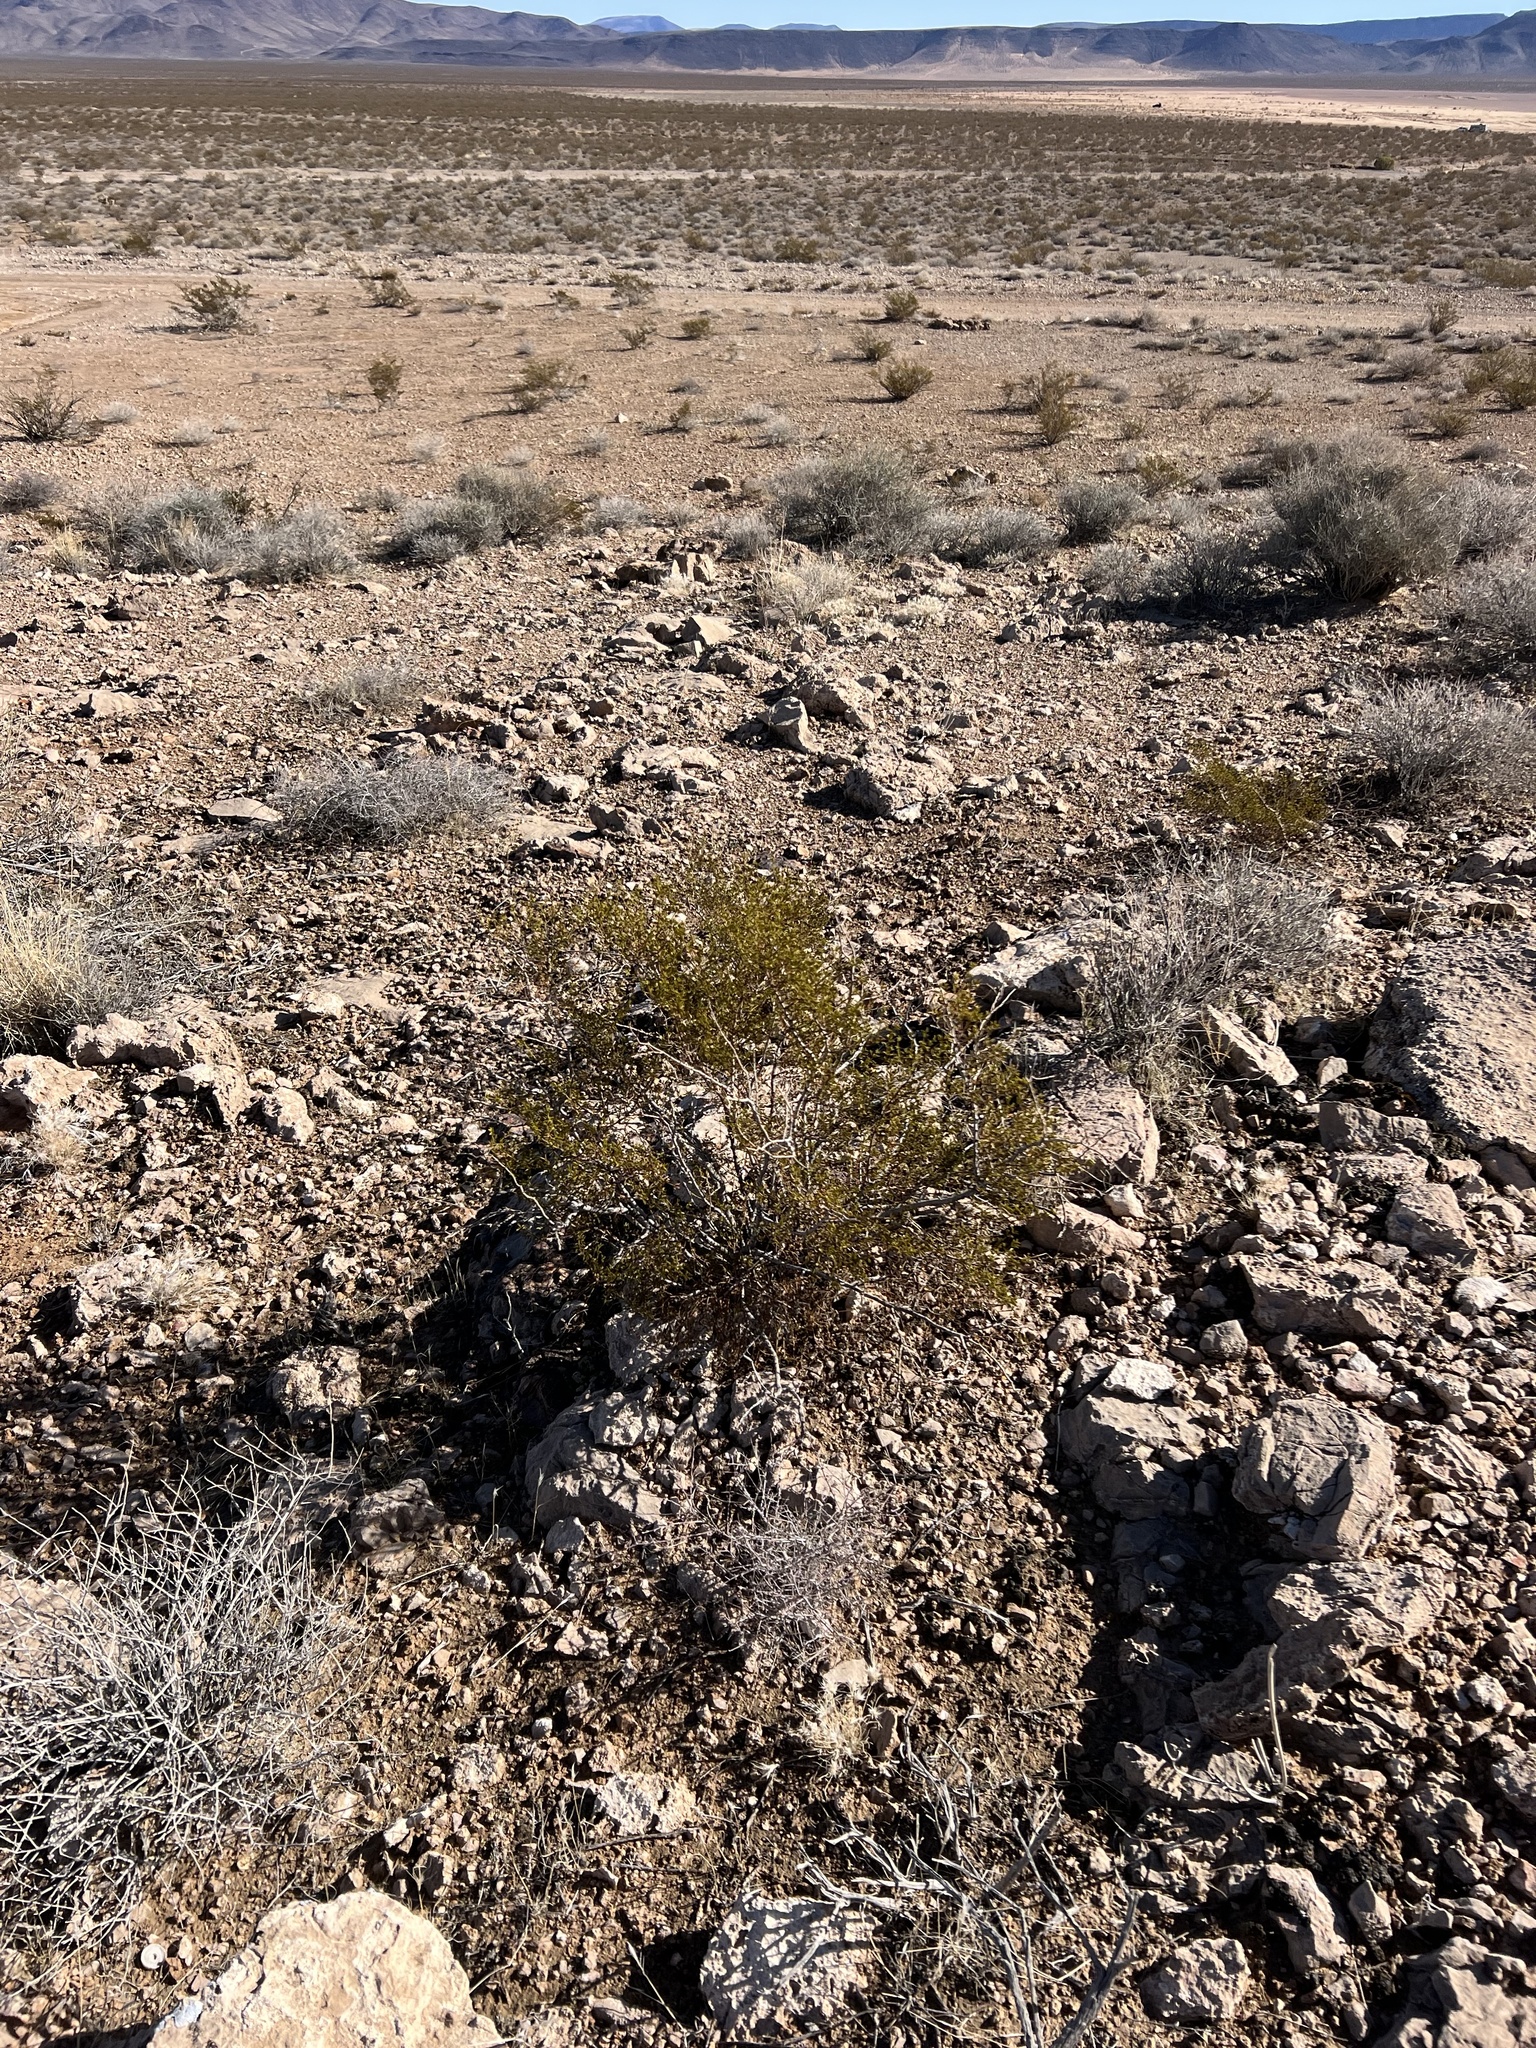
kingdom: Plantae
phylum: Tracheophyta
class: Magnoliopsida
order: Zygophyllales
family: Zygophyllaceae
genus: Larrea
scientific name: Larrea tridentata
